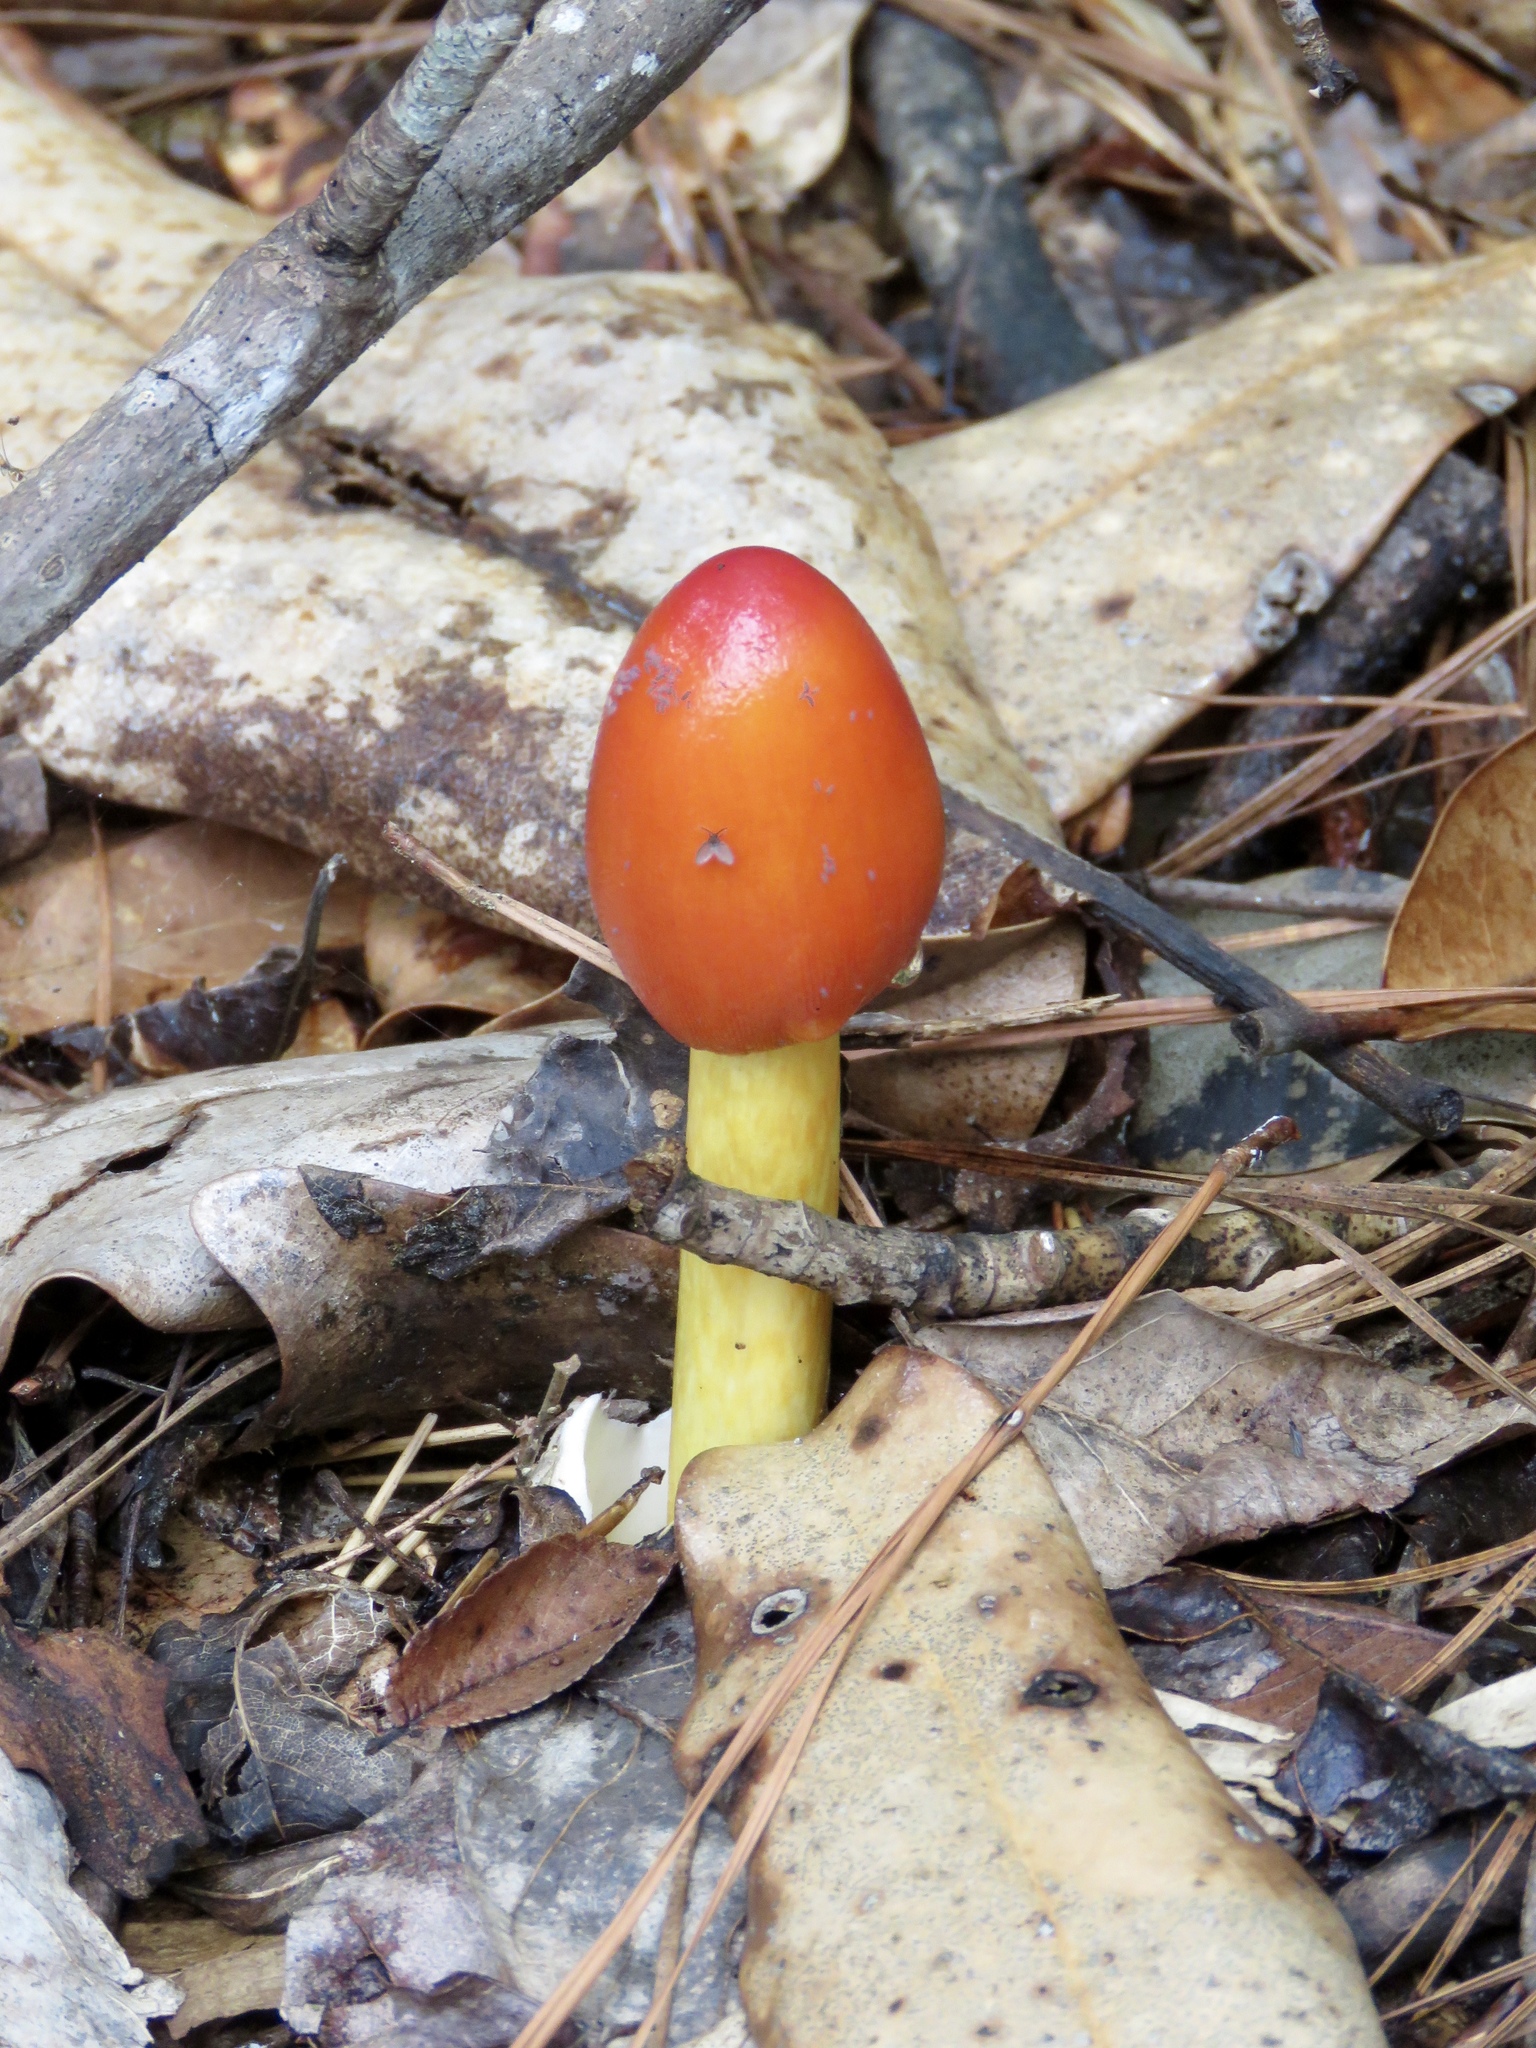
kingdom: Fungi
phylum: Basidiomycota
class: Agaricomycetes
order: Agaricales
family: Amanitaceae
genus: Amanita
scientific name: Amanita jacksonii
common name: Jackson's slender caesar
